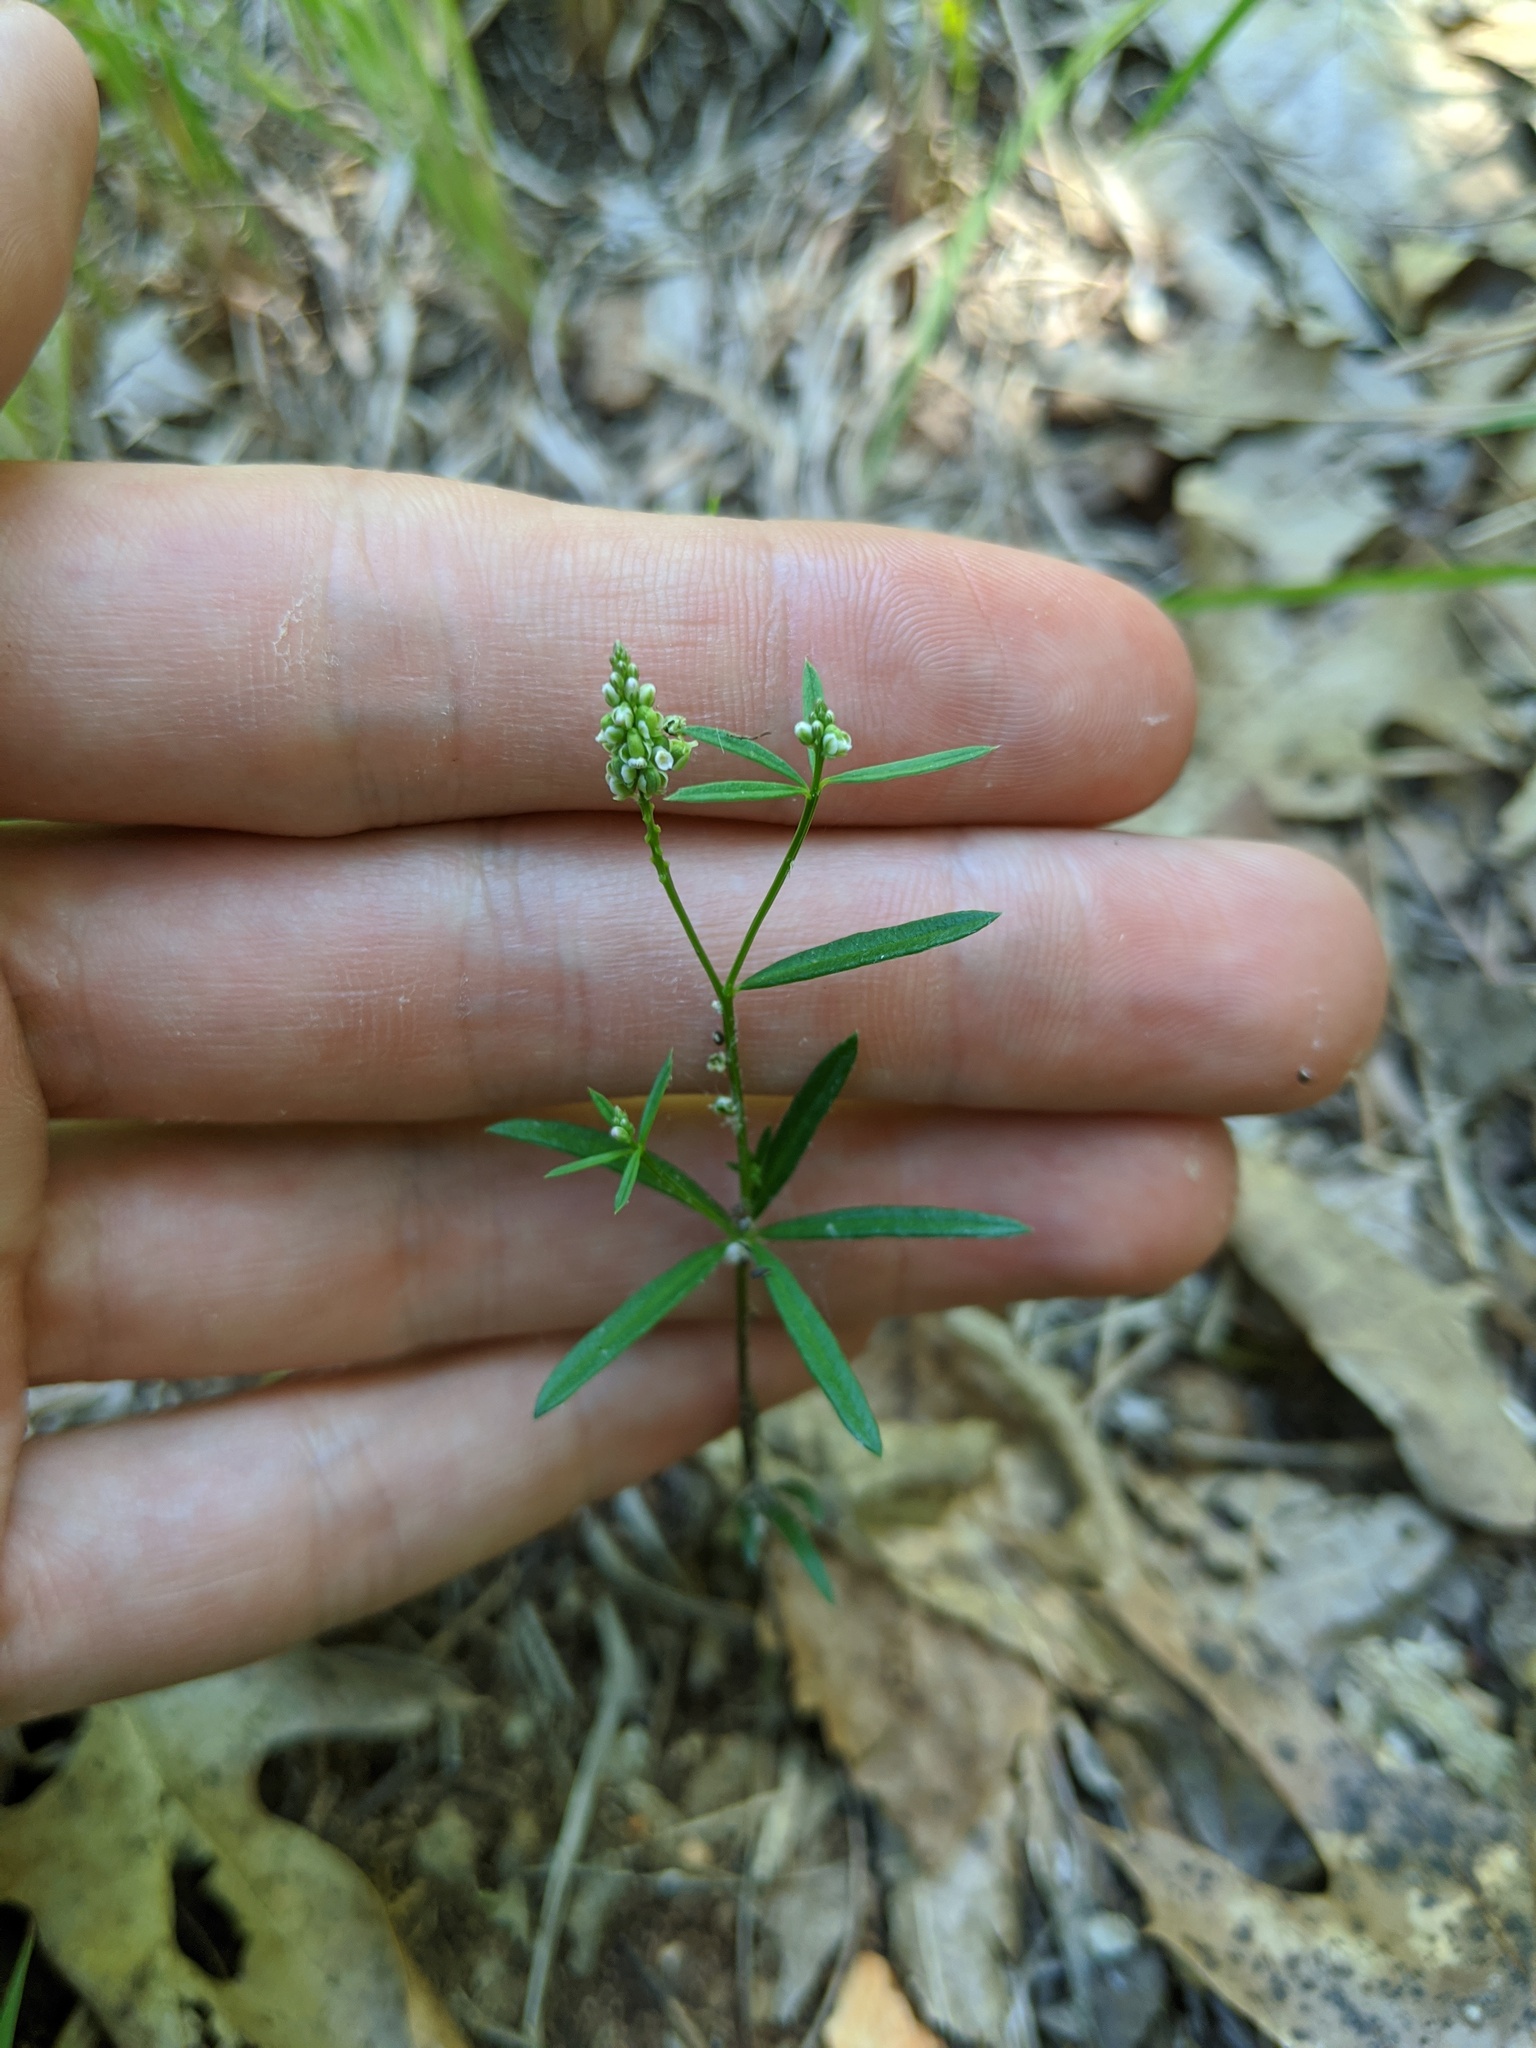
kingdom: Plantae
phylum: Tracheophyta
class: Magnoliopsida
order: Fabales
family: Polygalaceae
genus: Polygala
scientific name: Polygala verticillata
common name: Whorl milkwort
